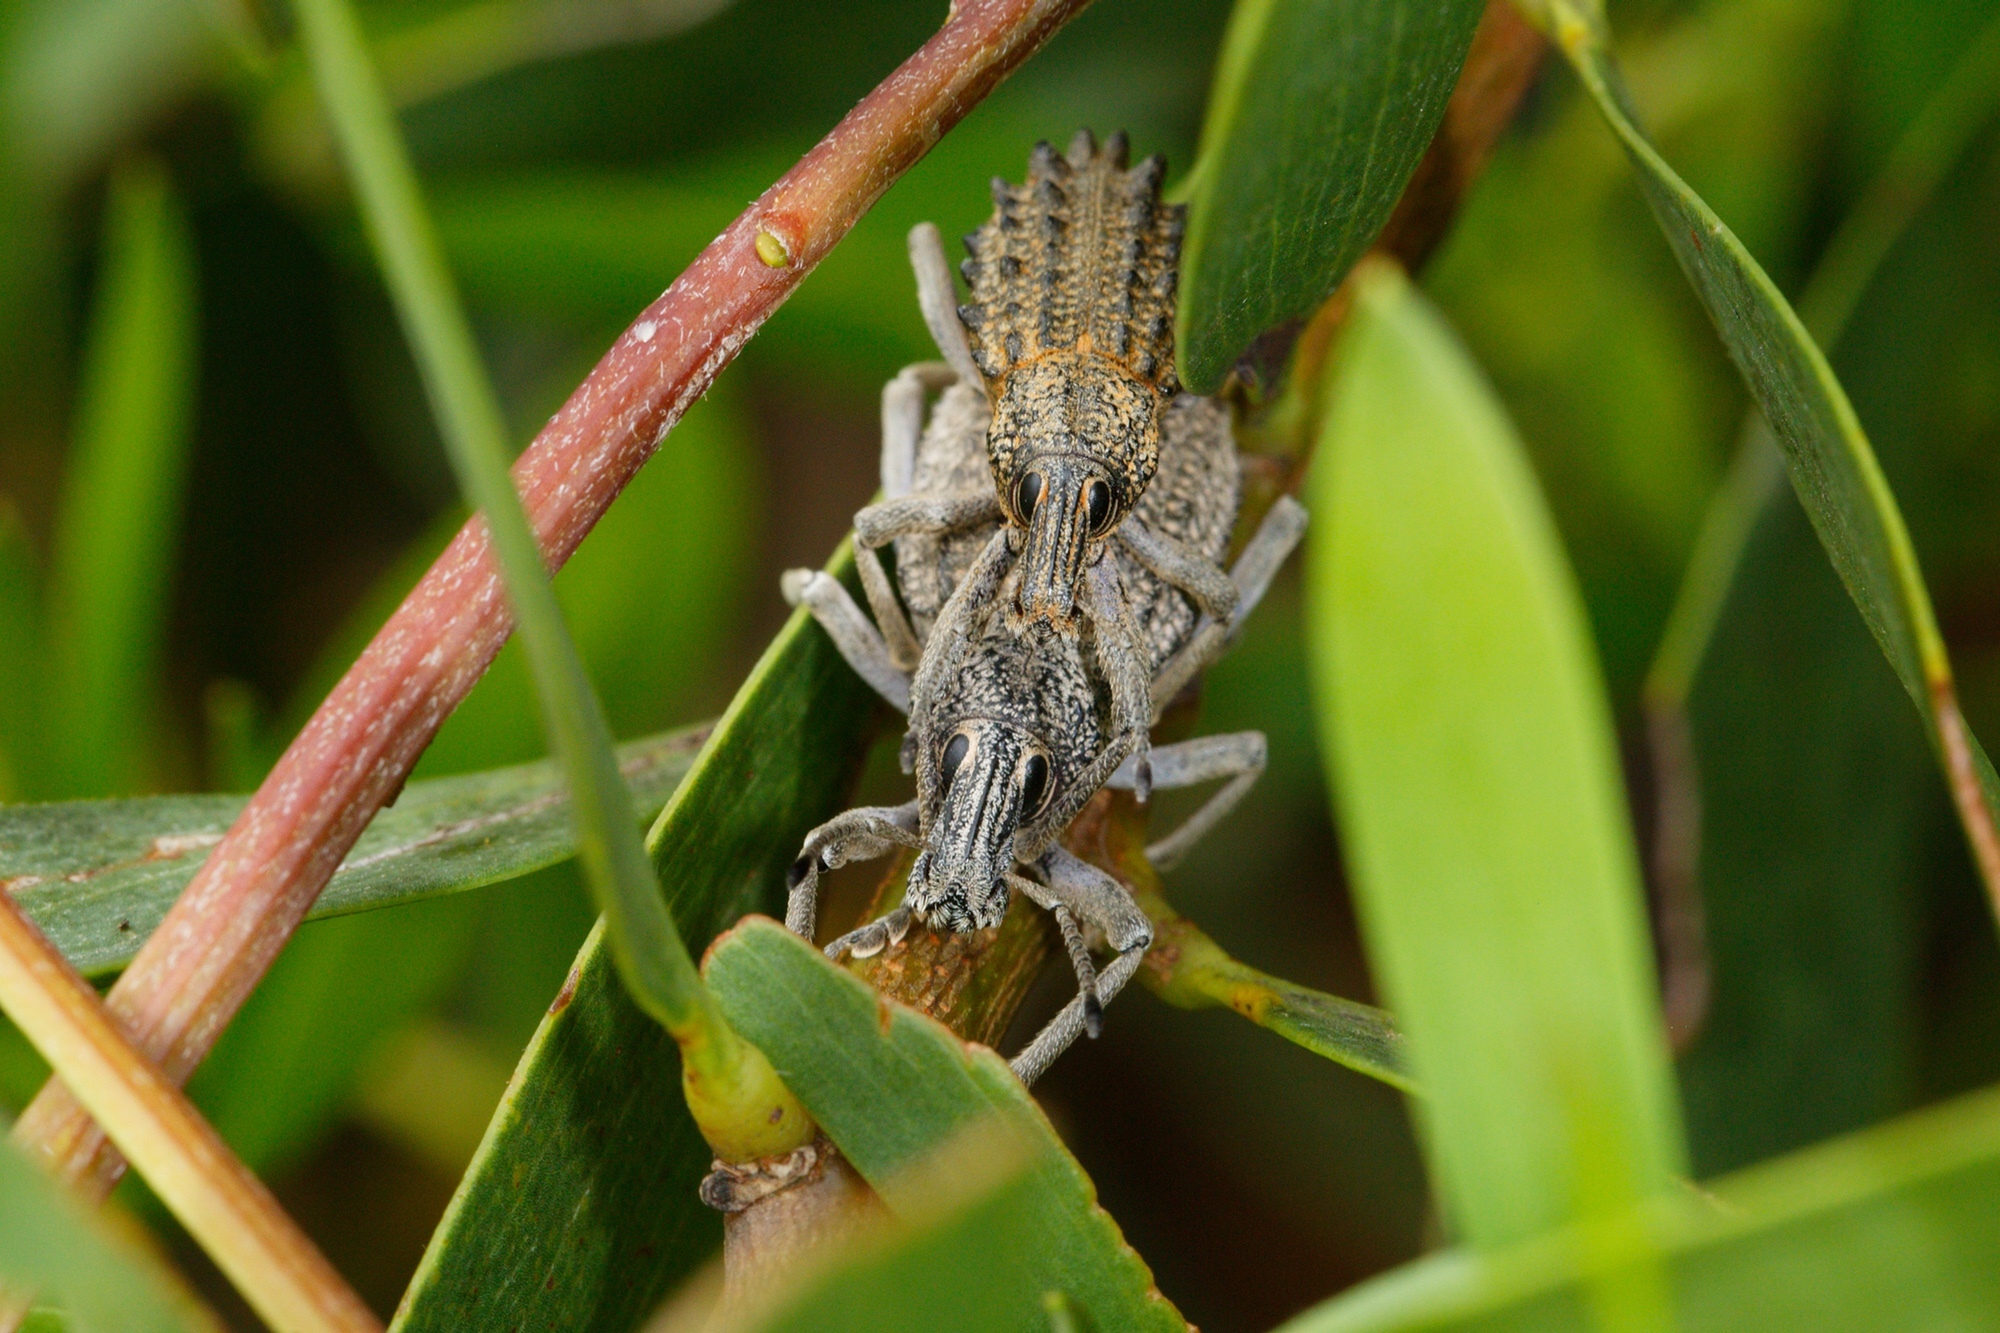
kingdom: Animalia
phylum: Arthropoda
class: Insecta
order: Coleoptera
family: Curculionidae
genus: Leptopius
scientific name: Leptopius duponti
